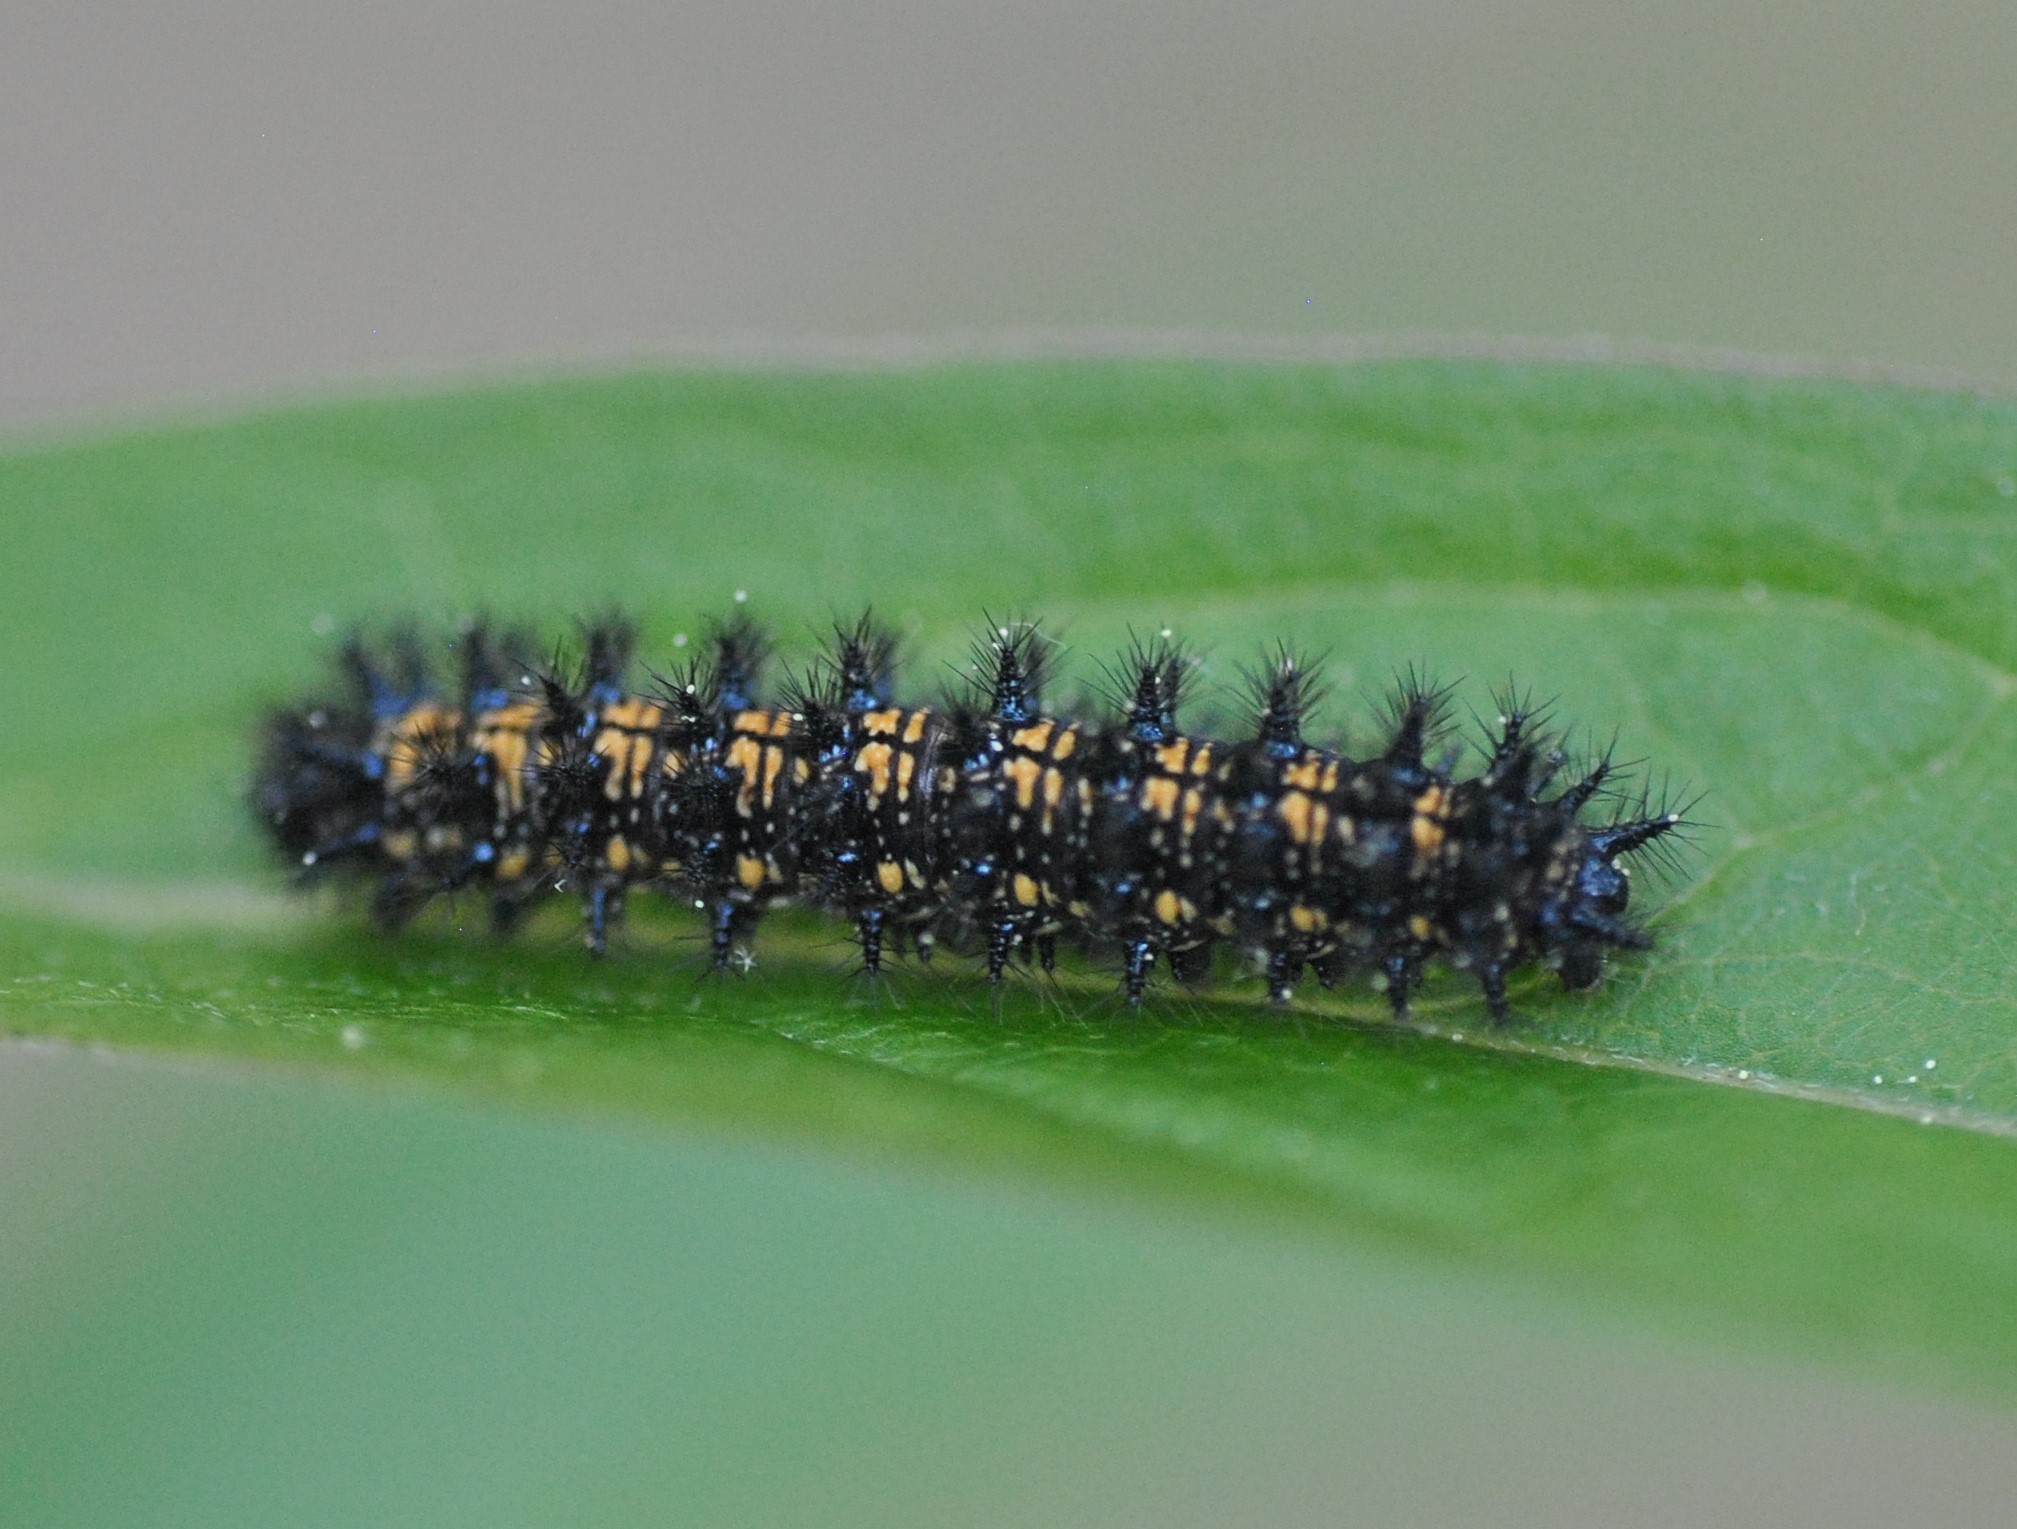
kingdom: Animalia
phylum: Arthropoda
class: Insecta
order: Lepidoptera
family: Nymphalidae
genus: Chlosyne
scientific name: Chlosyne harrisii
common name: Harris's checkerspot
